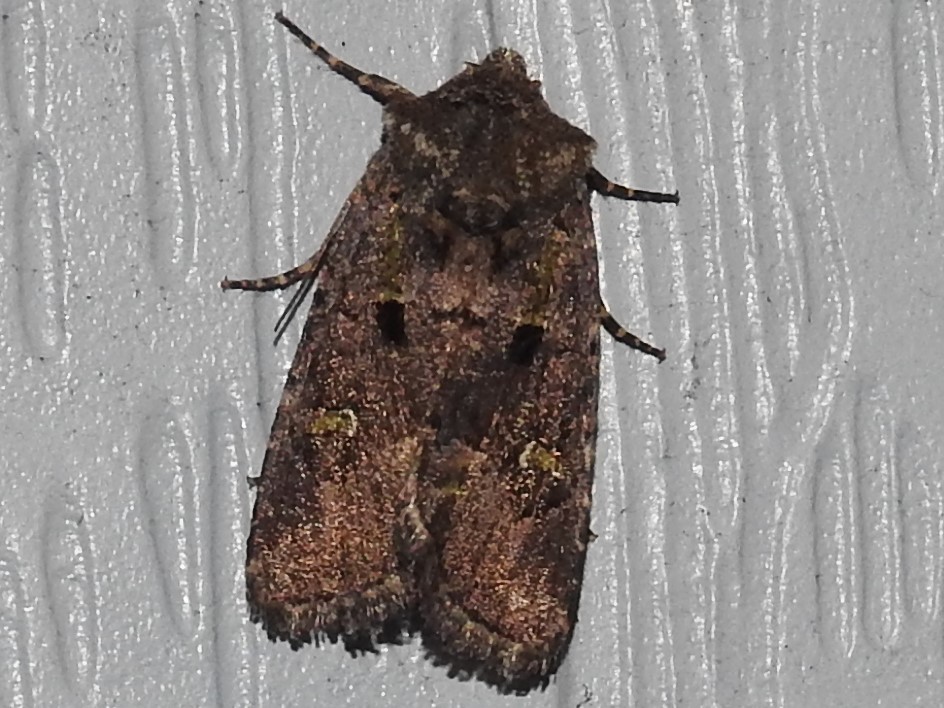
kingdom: Animalia
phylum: Arthropoda
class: Insecta
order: Lepidoptera
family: Noctuidae
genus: Lacinipolia
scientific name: Lacinipolia renigera
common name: Kidney-spotted minor
